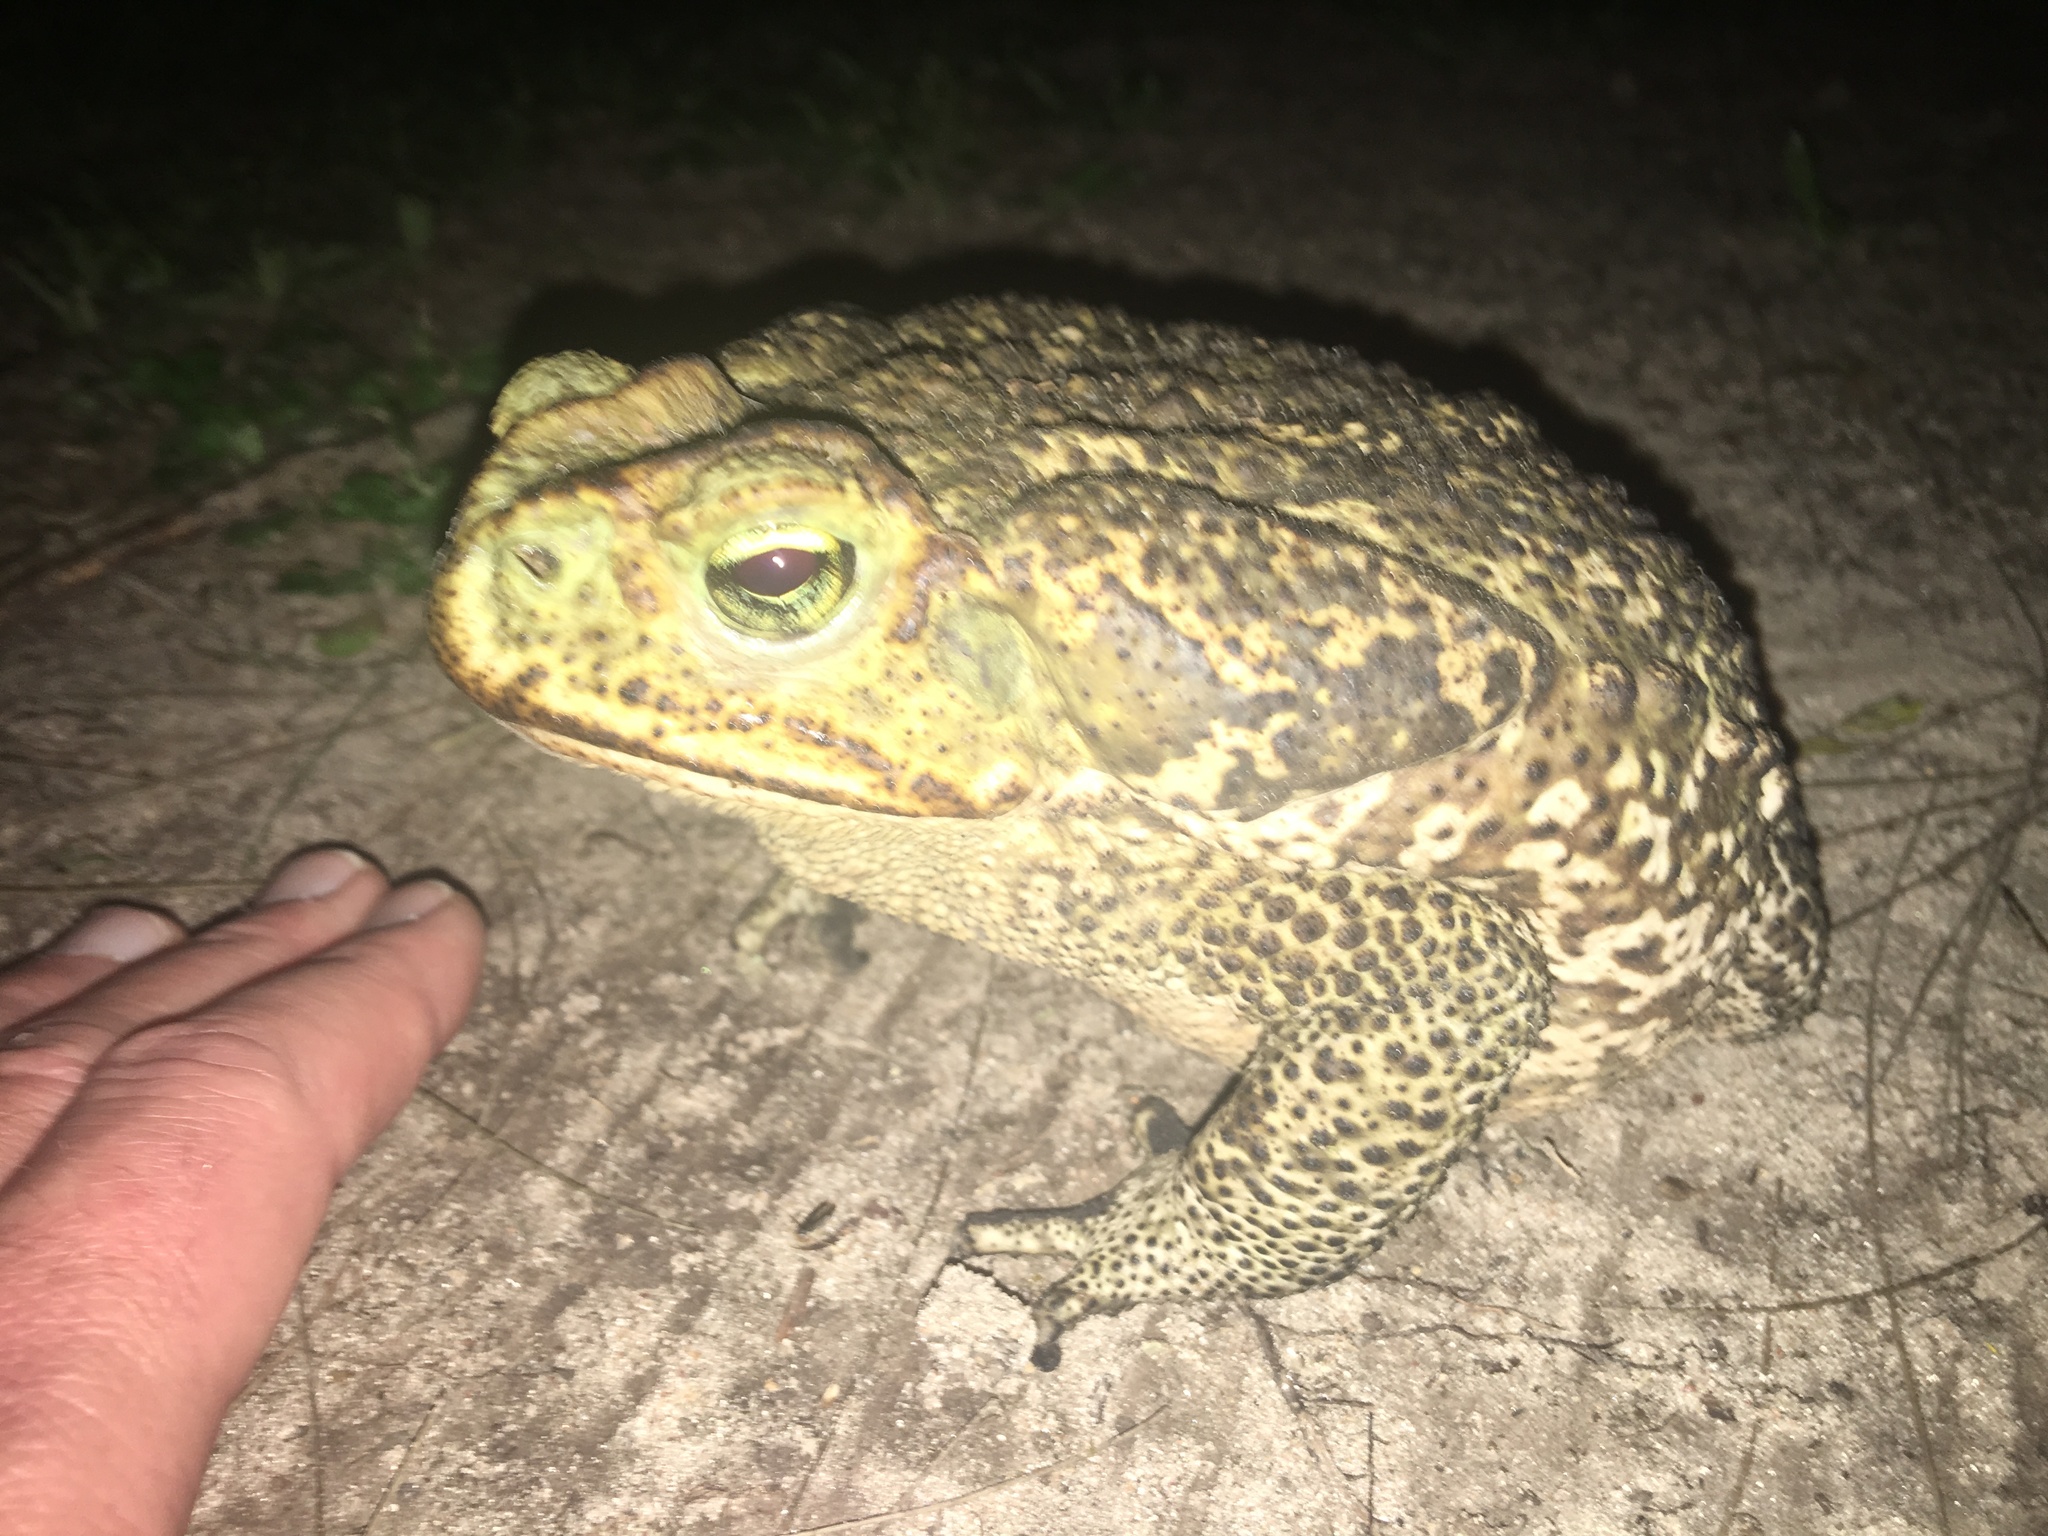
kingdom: Animalia
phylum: Chordata
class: Amphibia
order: Anura
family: Bufonidae
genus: Rhinella
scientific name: Rhinella diptycha
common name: Cope's toad
